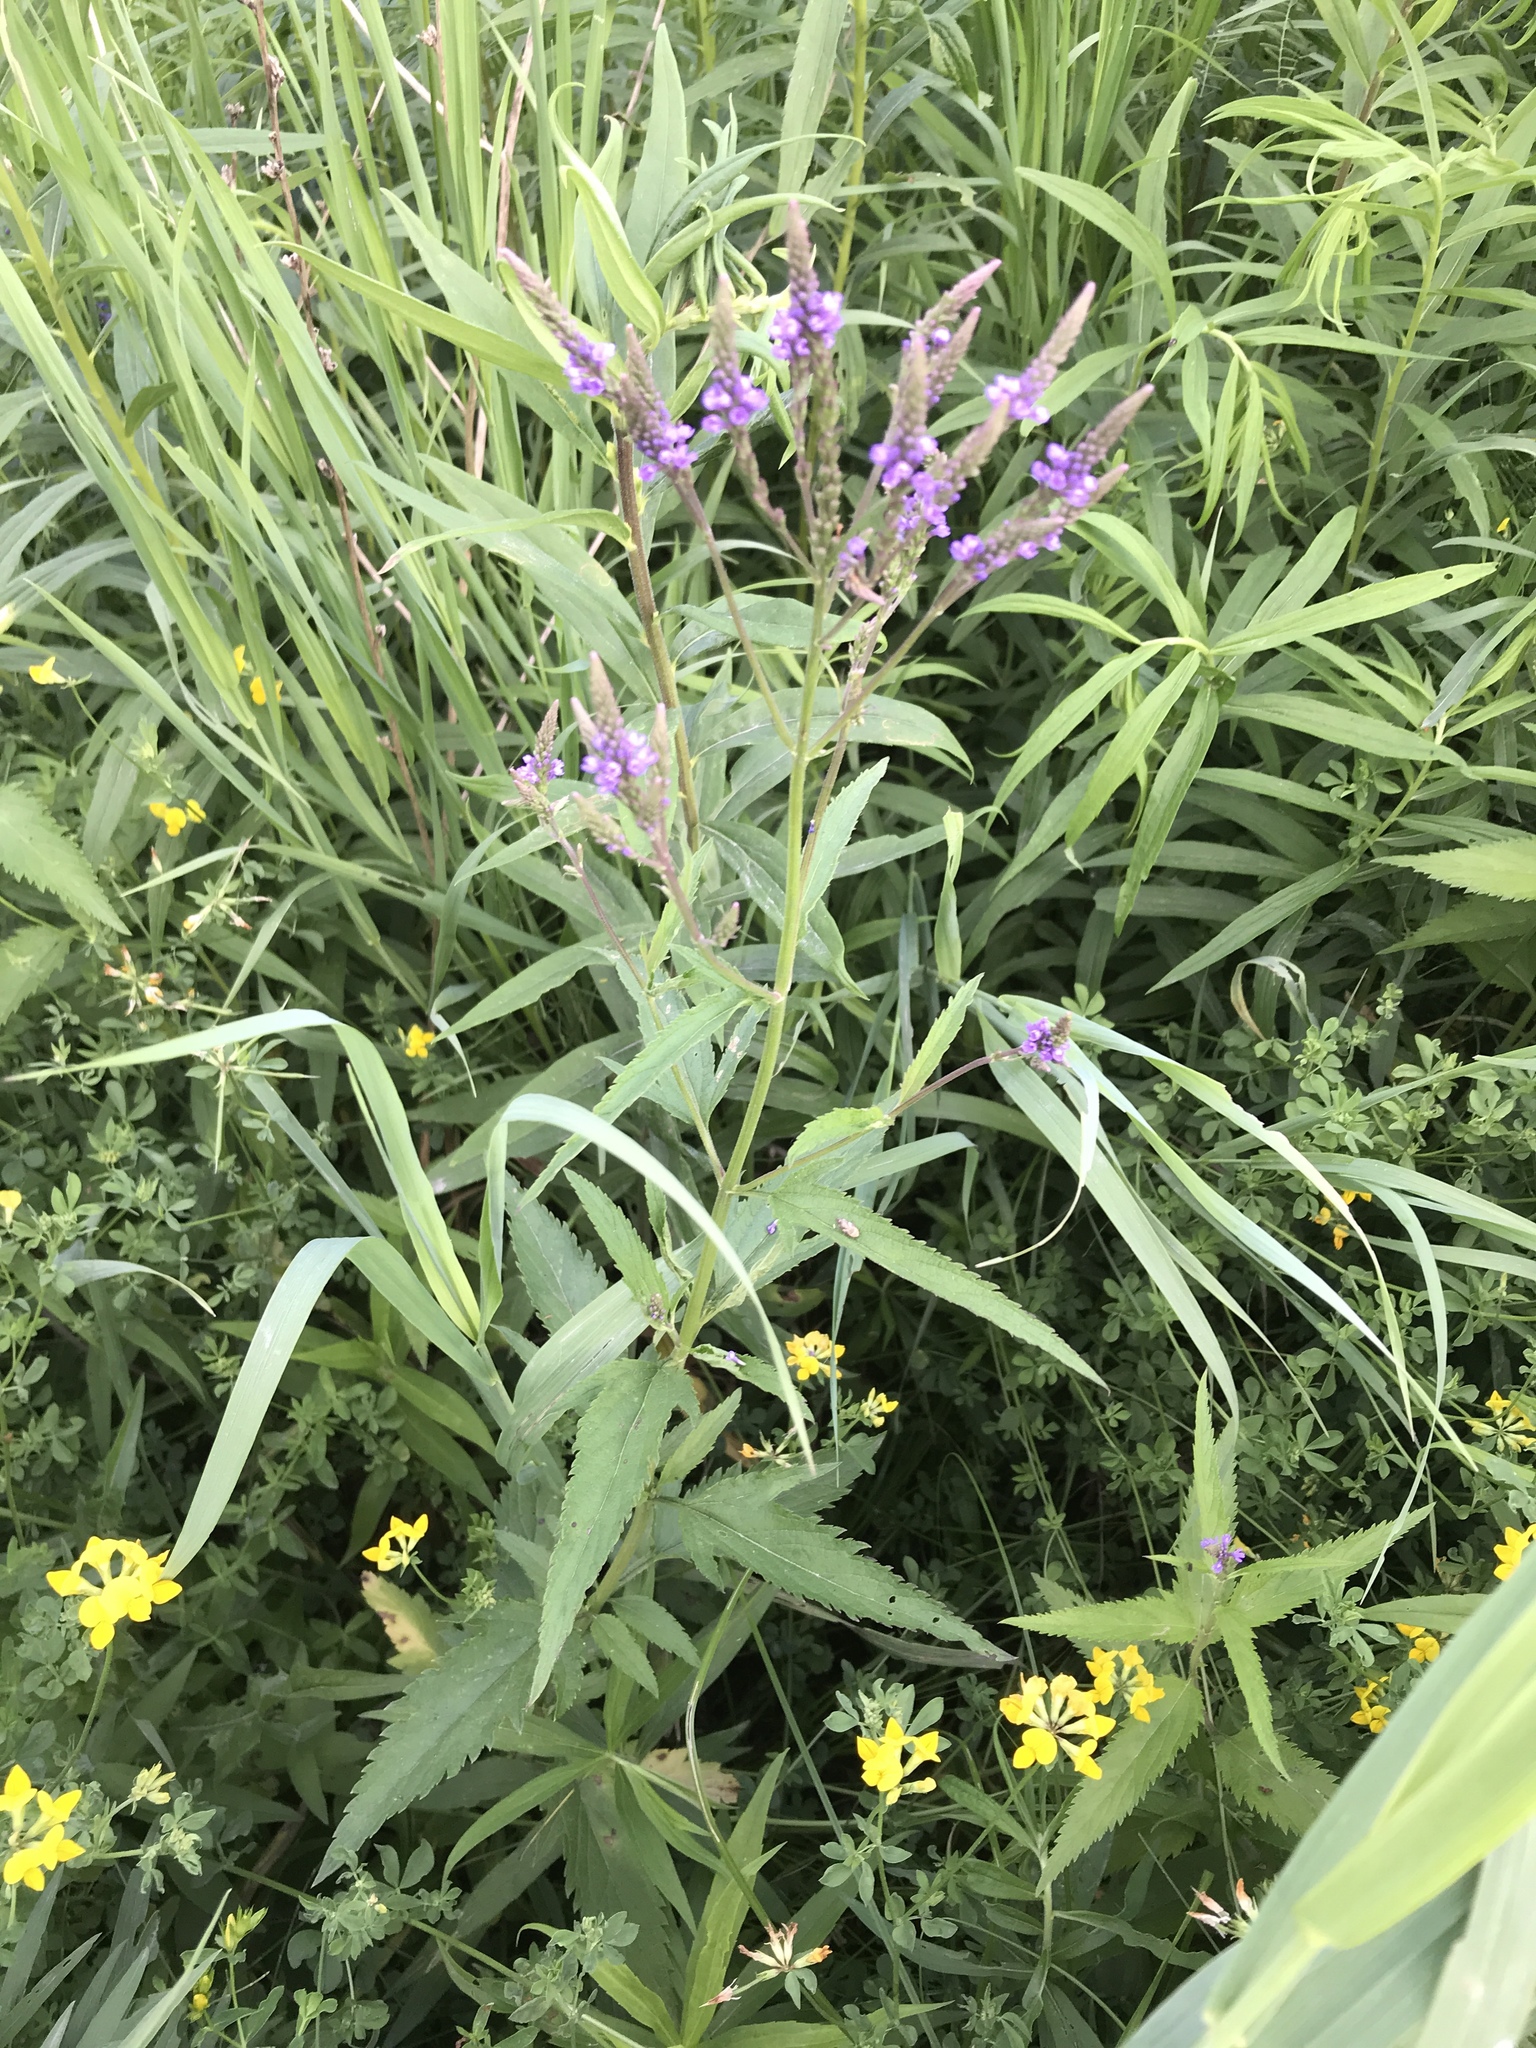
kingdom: Plantae
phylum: Tracheophyta
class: Magnoliopsida
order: Lamiales
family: Verbenaceae
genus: Verbena
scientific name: Verbena hastata
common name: American blue vervain
